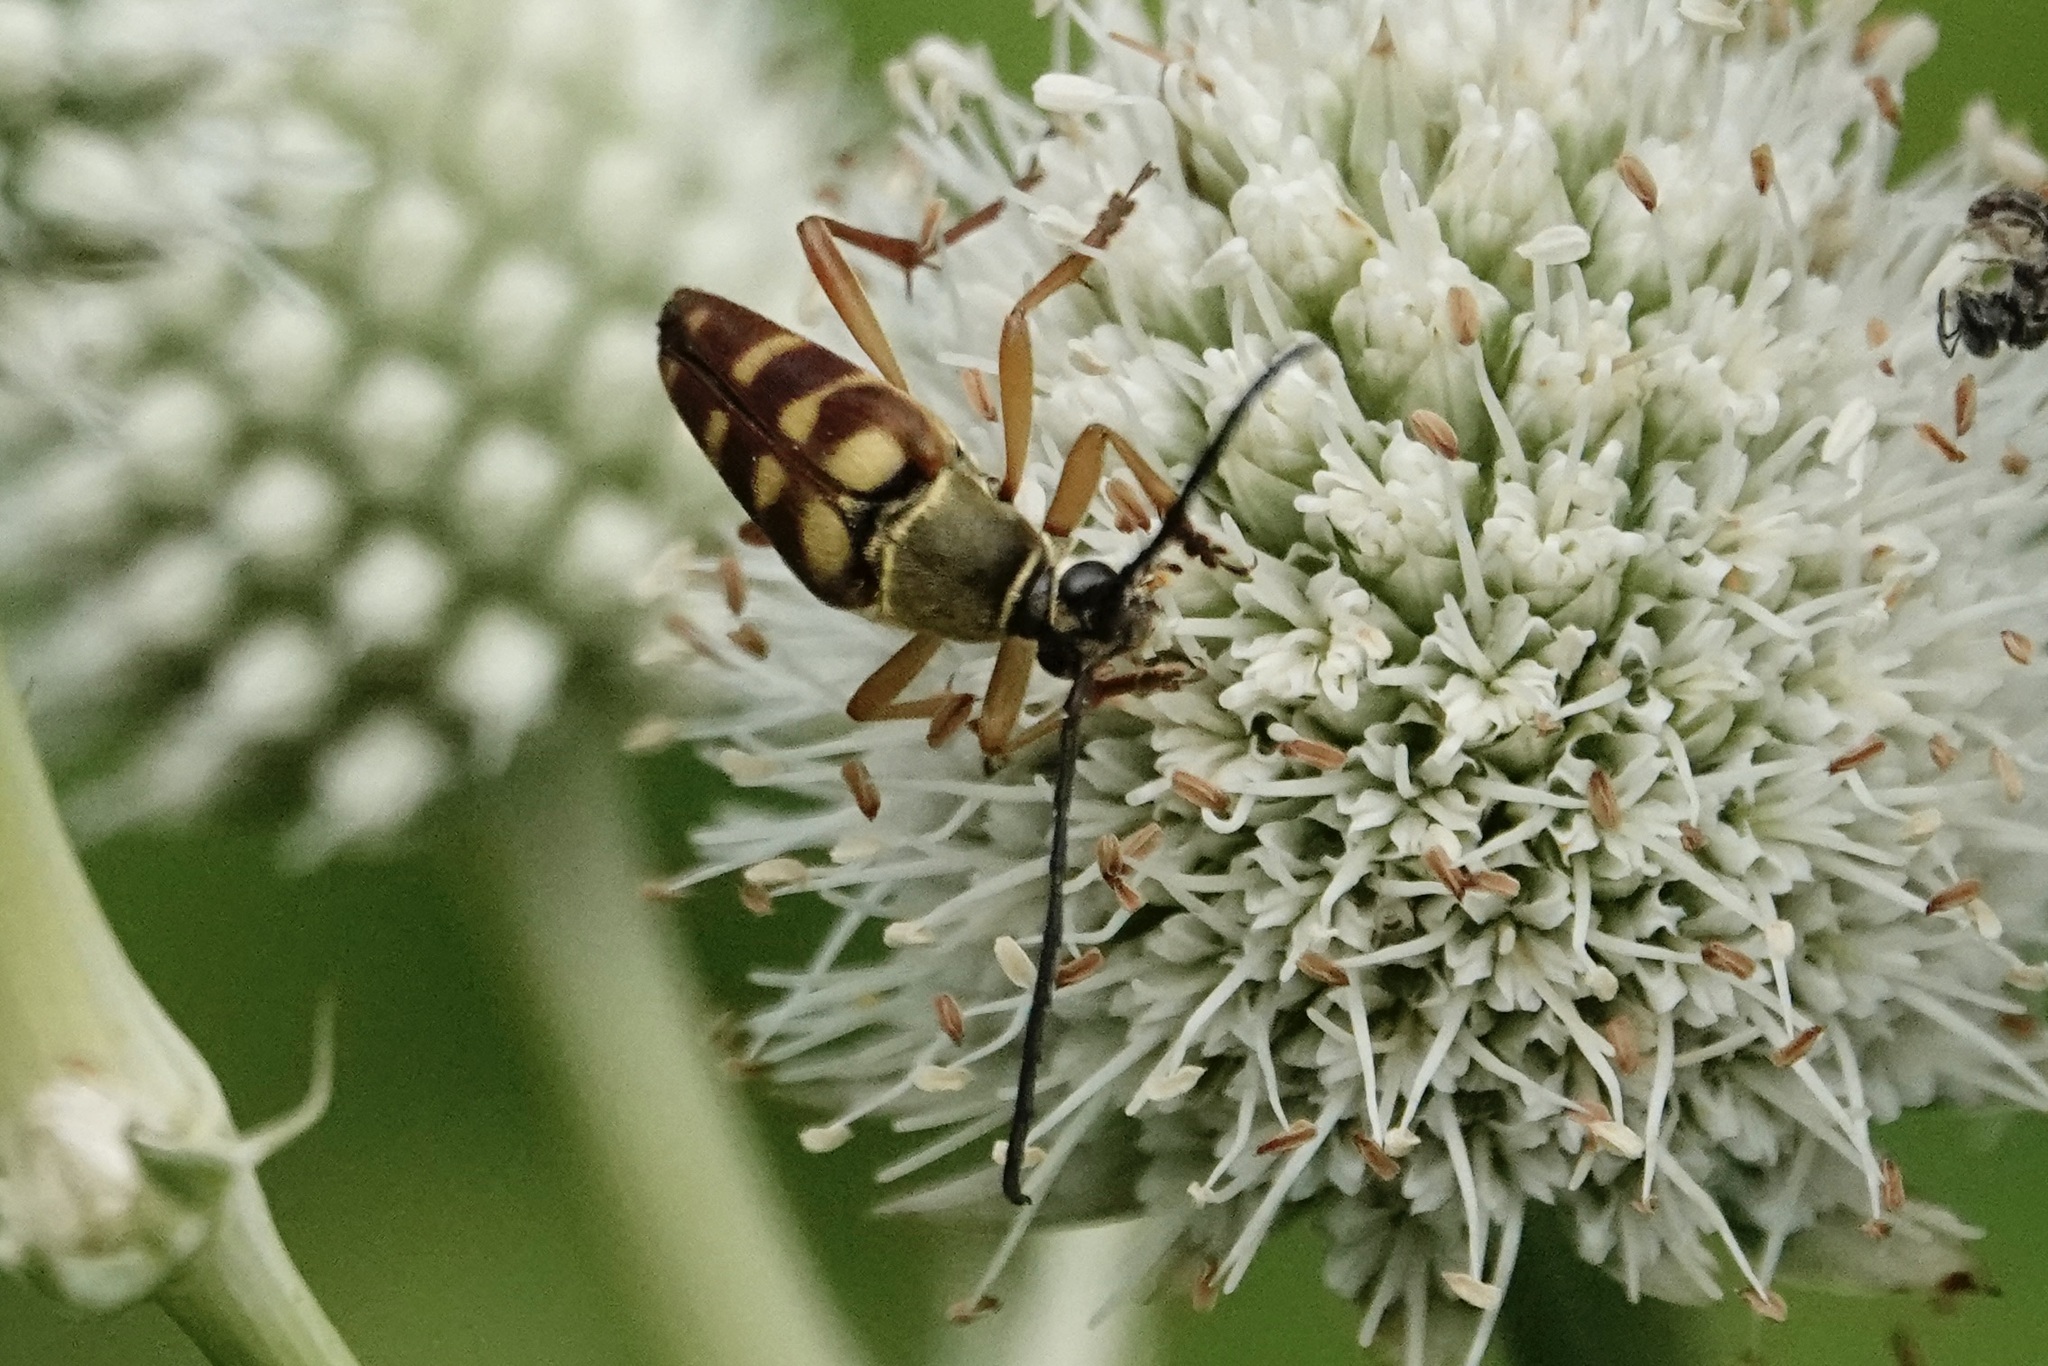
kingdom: Animalia
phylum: Arthropoda
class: Insecta
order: Coleoptera
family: Cerambycidae
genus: Typocerus
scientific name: Typocerus velutinus
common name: Banded longhorn beetle
